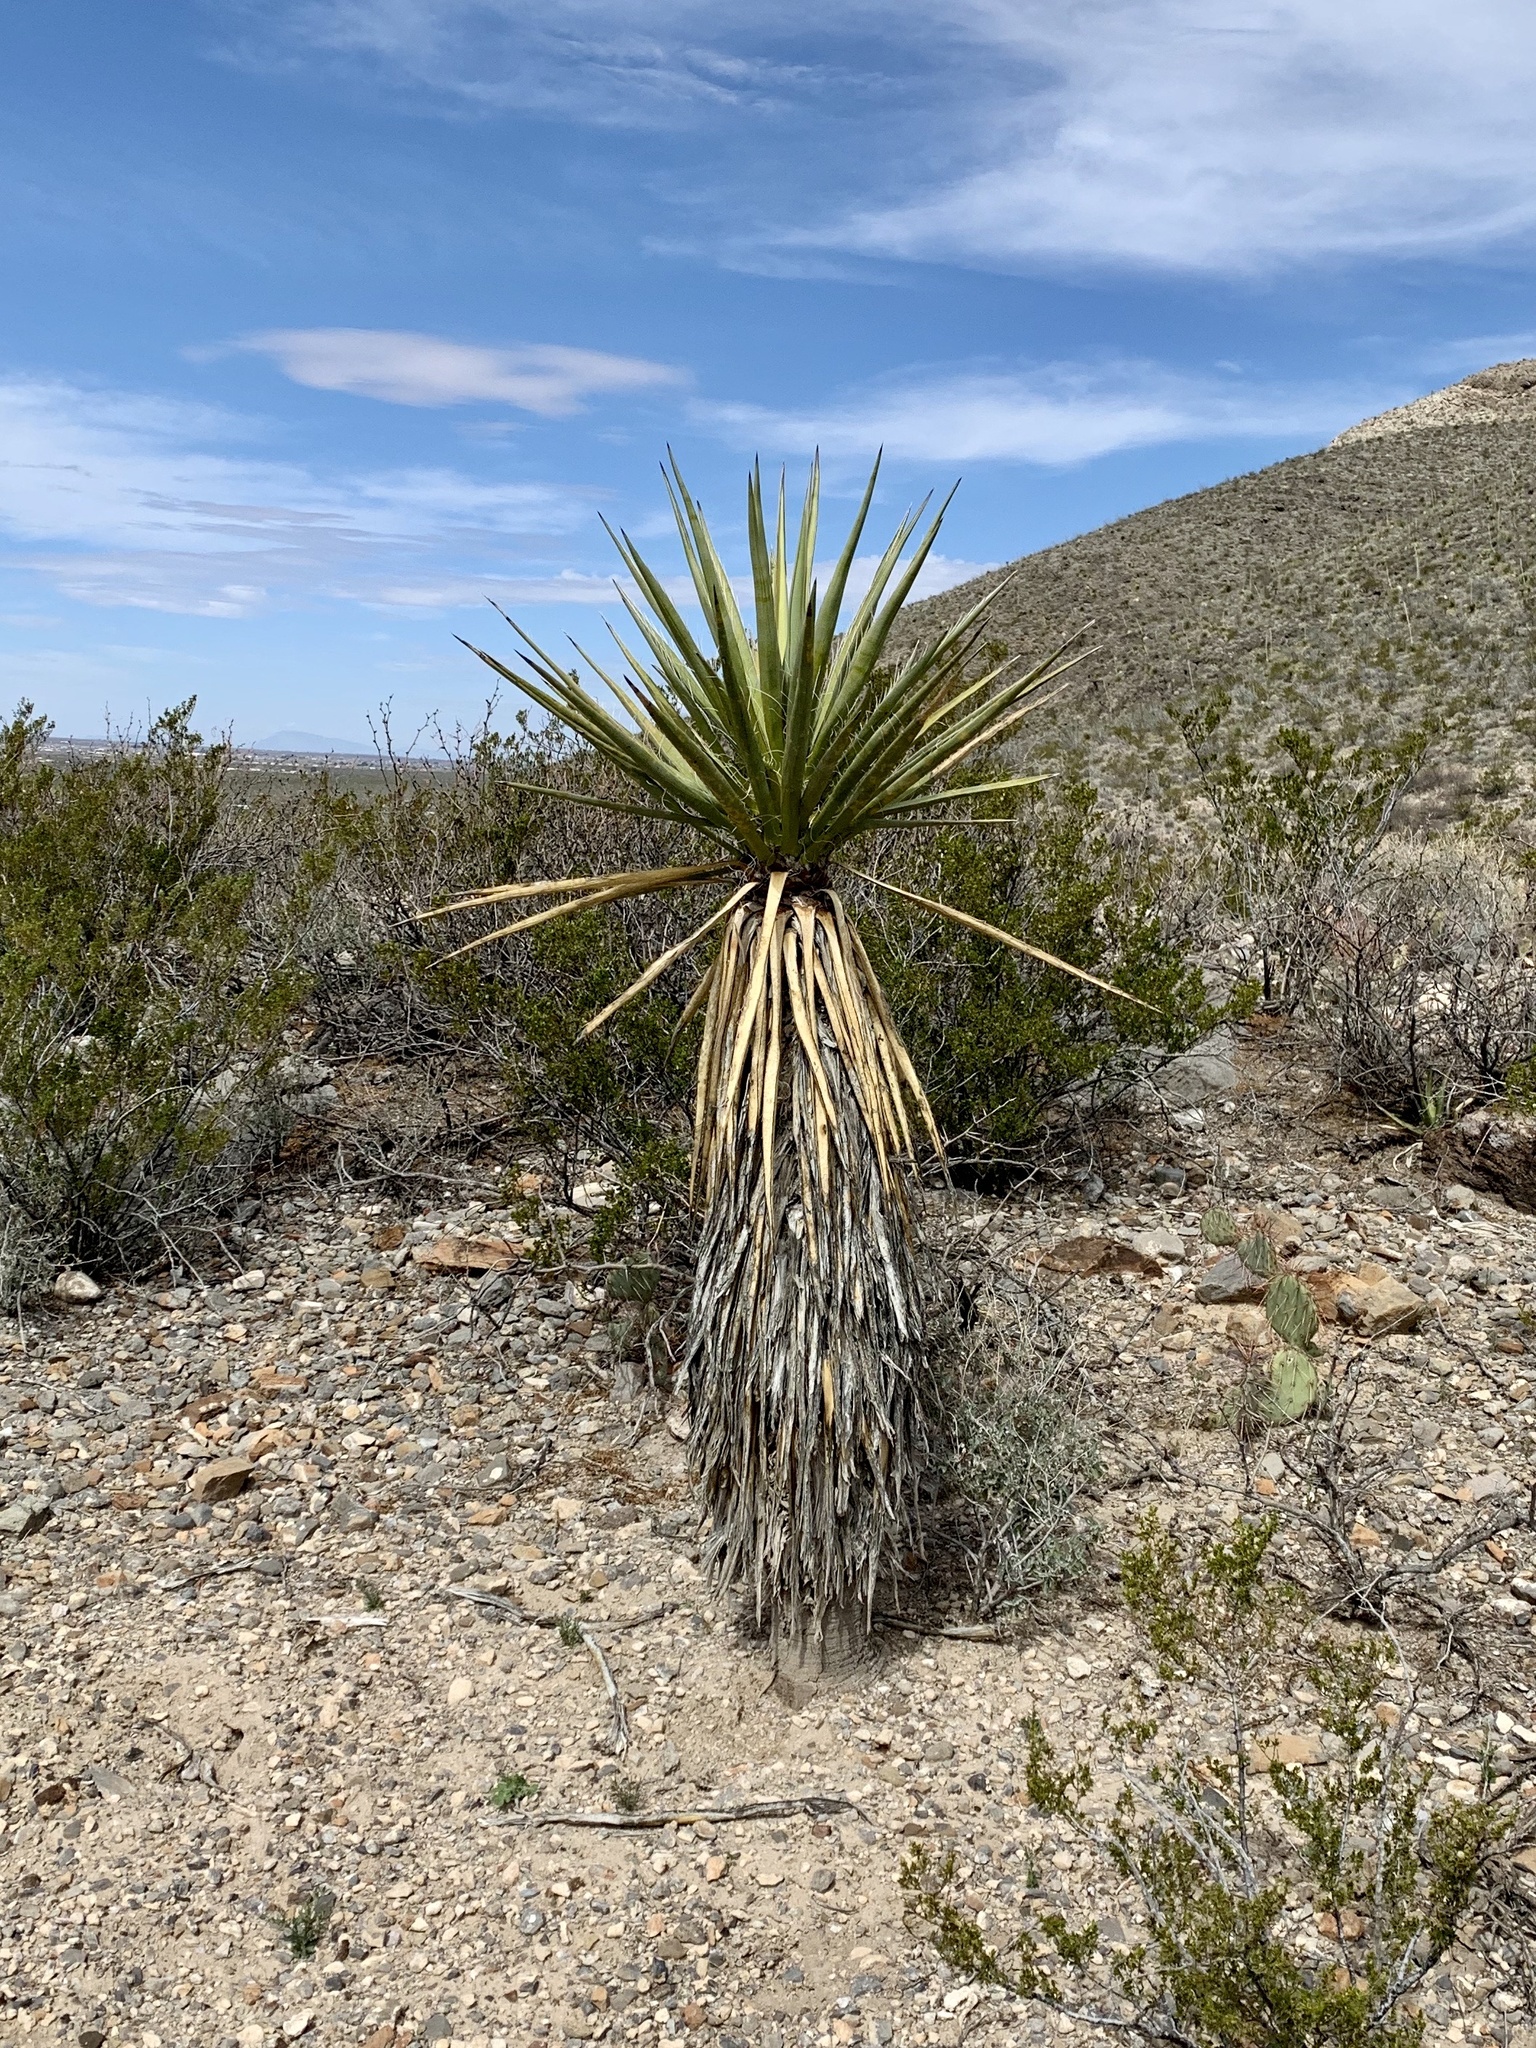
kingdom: Plantae
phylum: Tracheophyta
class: Liliopsida
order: Asparagales
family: Asparagaceae
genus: Yucca
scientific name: Yucca treculiana
